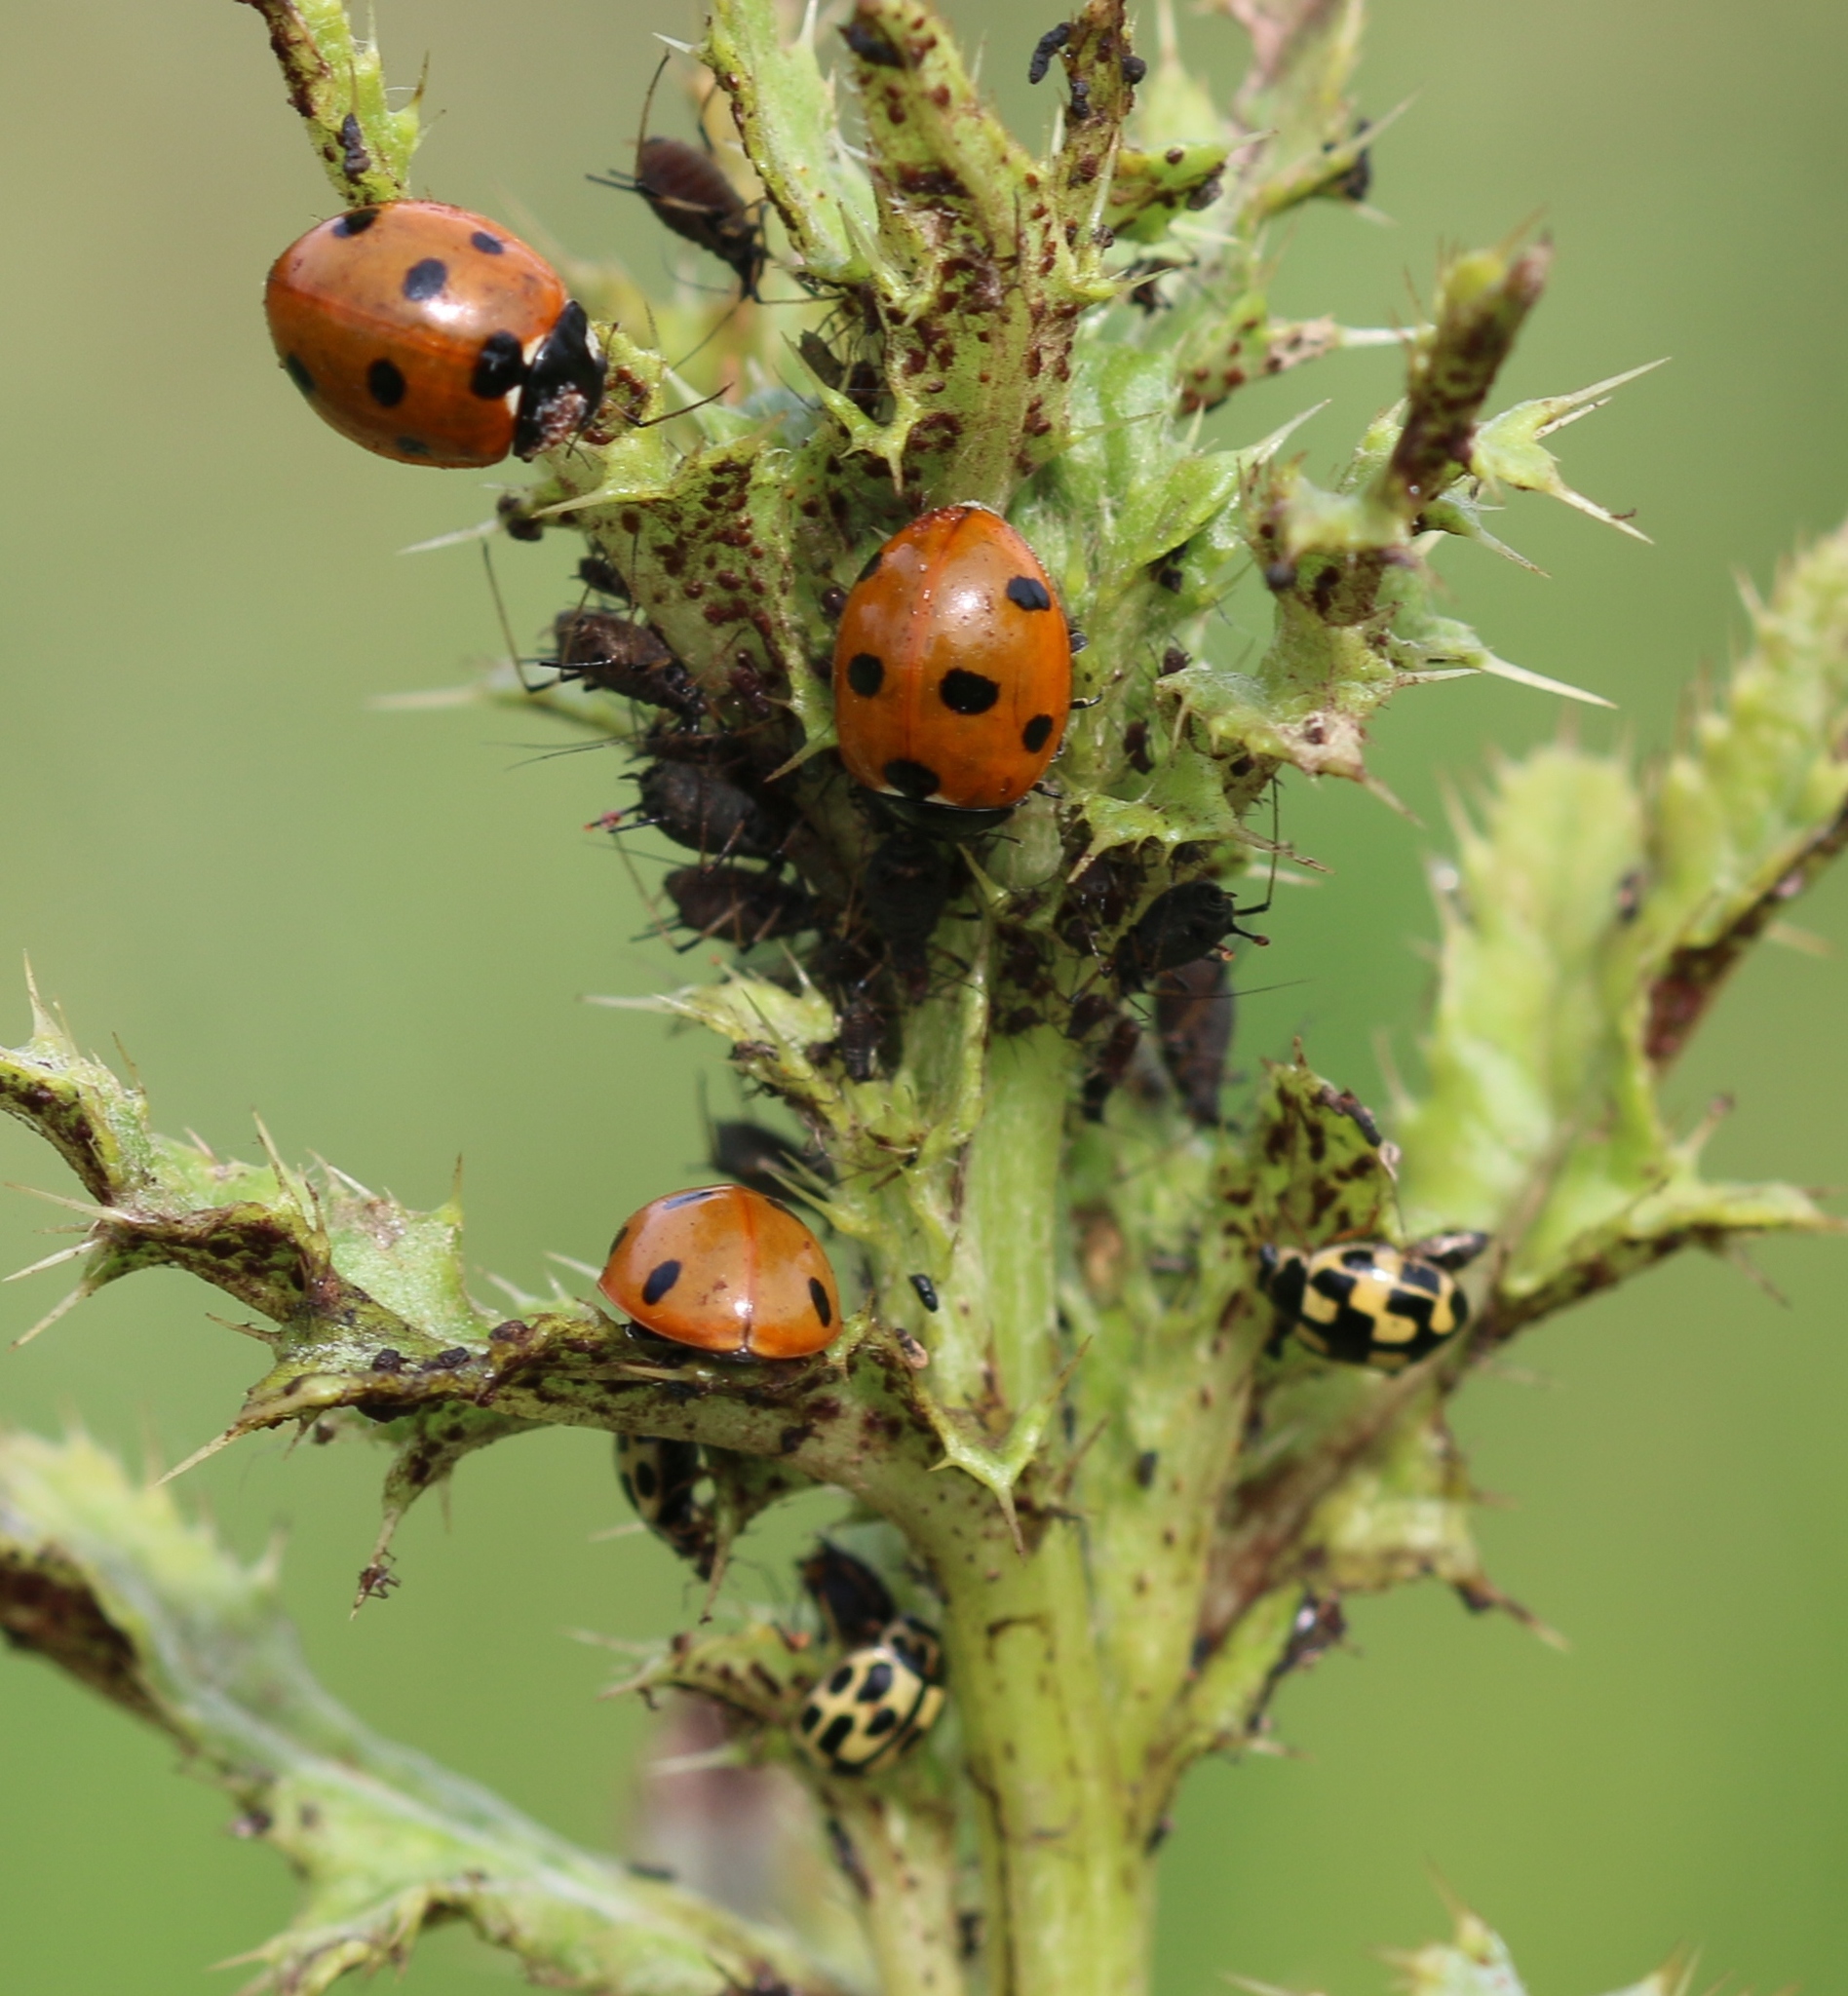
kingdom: Animalia
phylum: Arthropoda
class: Insecta
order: Coleoptera
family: Coccinellidae
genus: Coccinella
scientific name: Coccinella septempunctata
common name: Sevenspotted lady beetle
